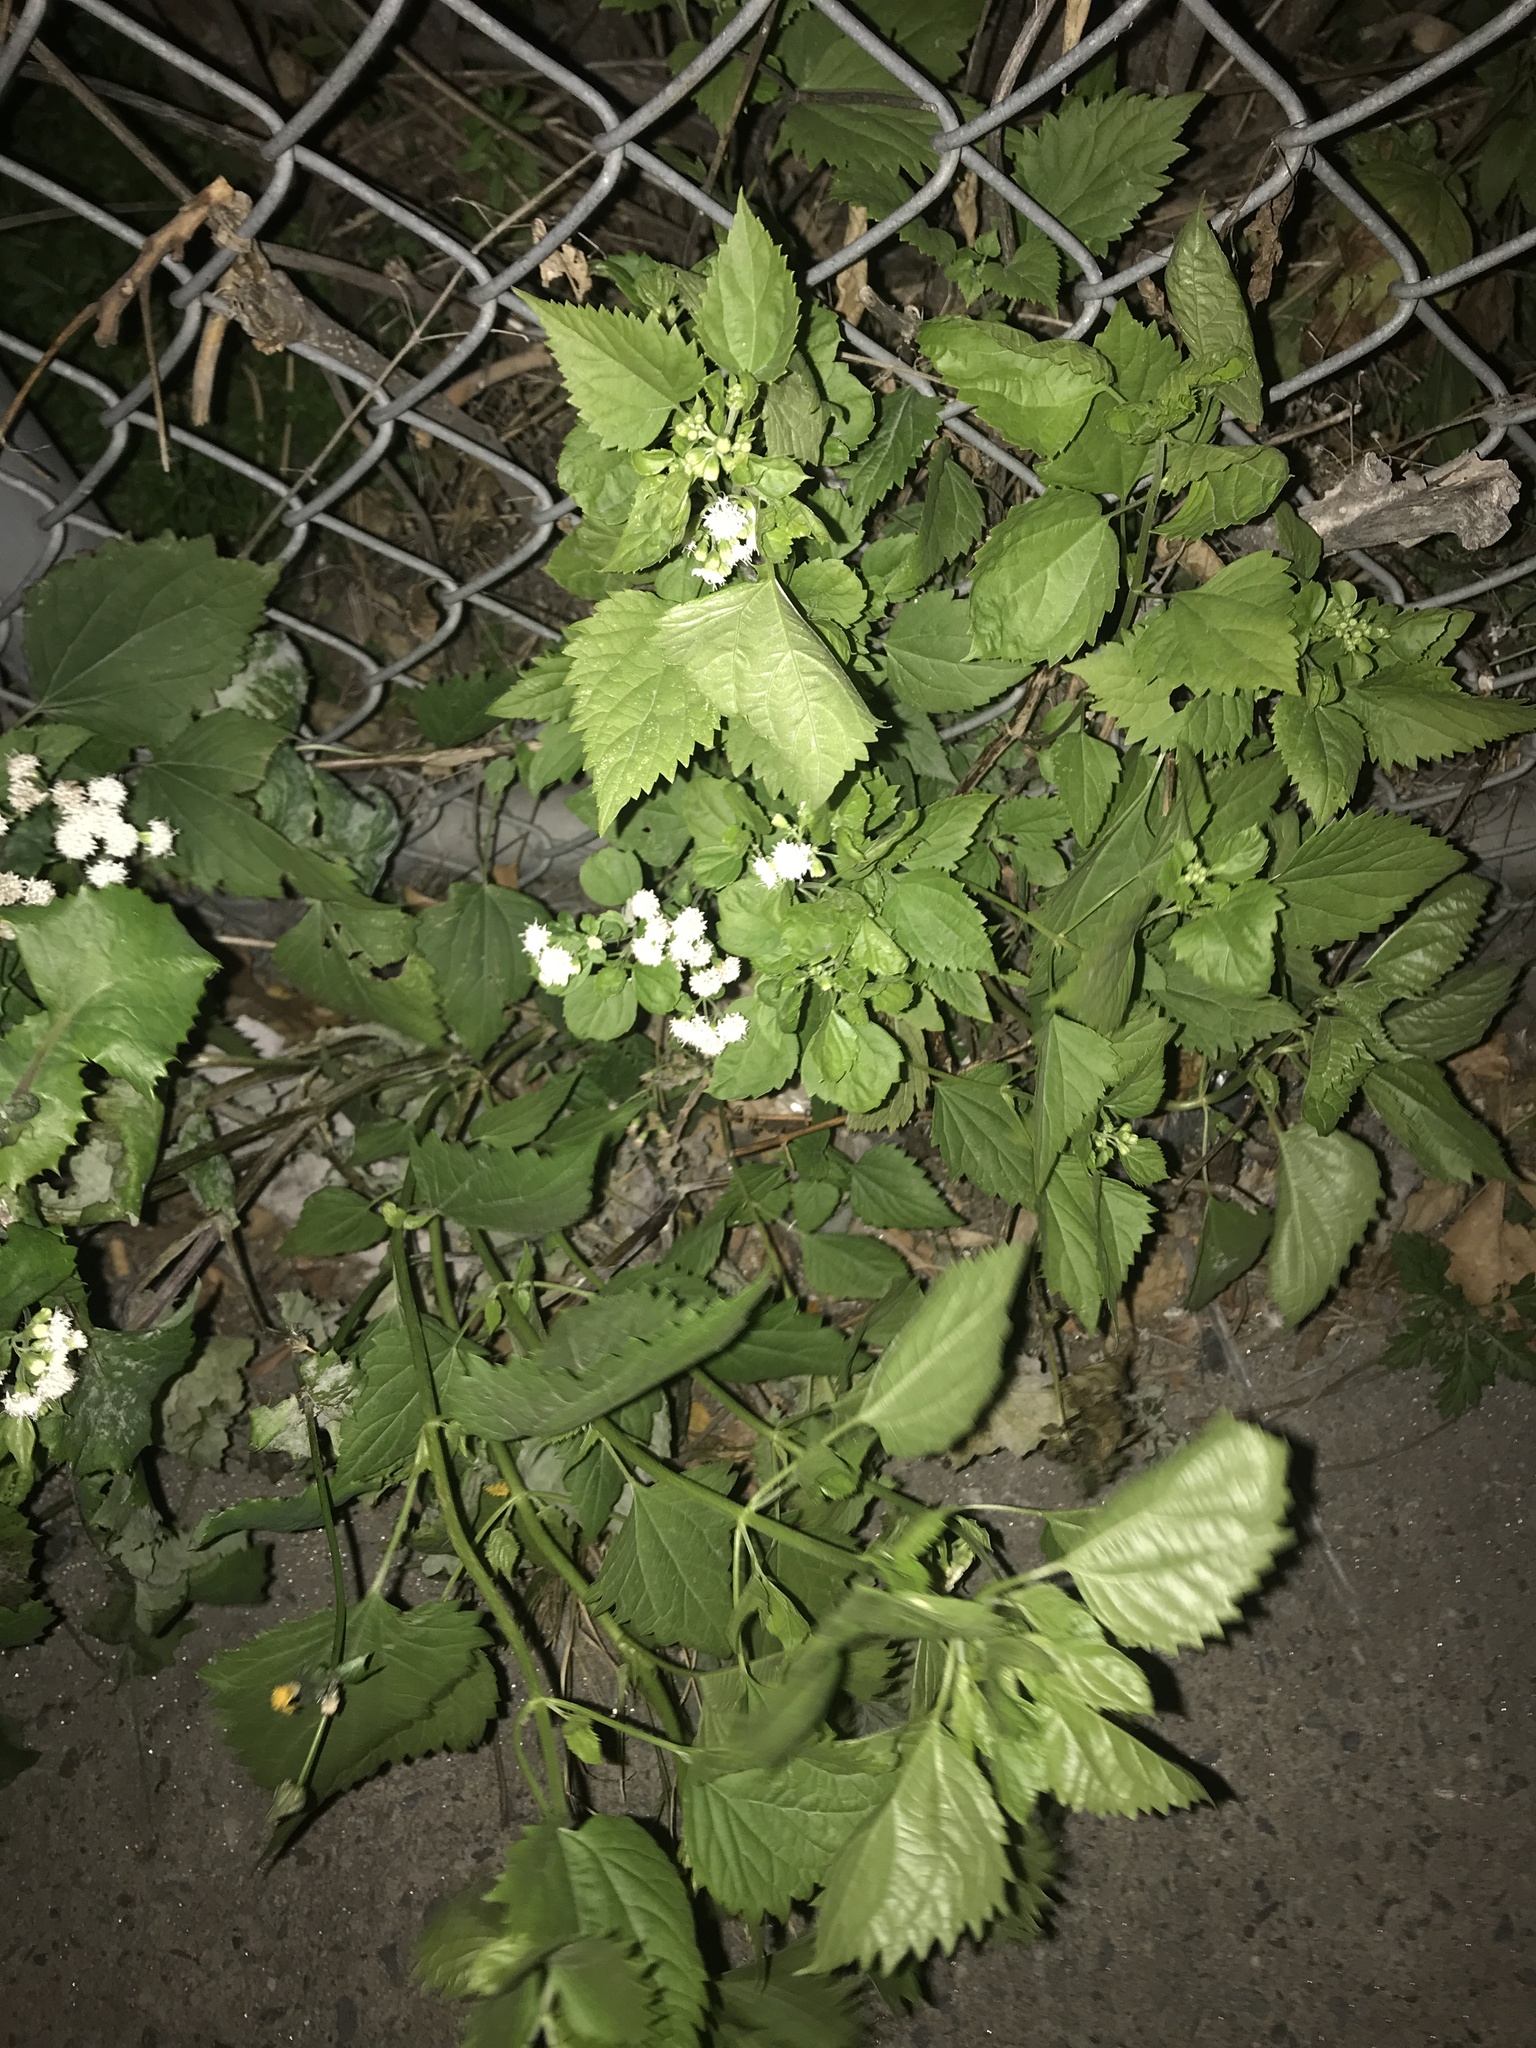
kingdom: Plantae
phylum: Tracheophyta
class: Magnoliopsida
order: Asterales
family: Asteraceae
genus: Ageratina
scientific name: Ageratina altissima
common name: White snakeroot
